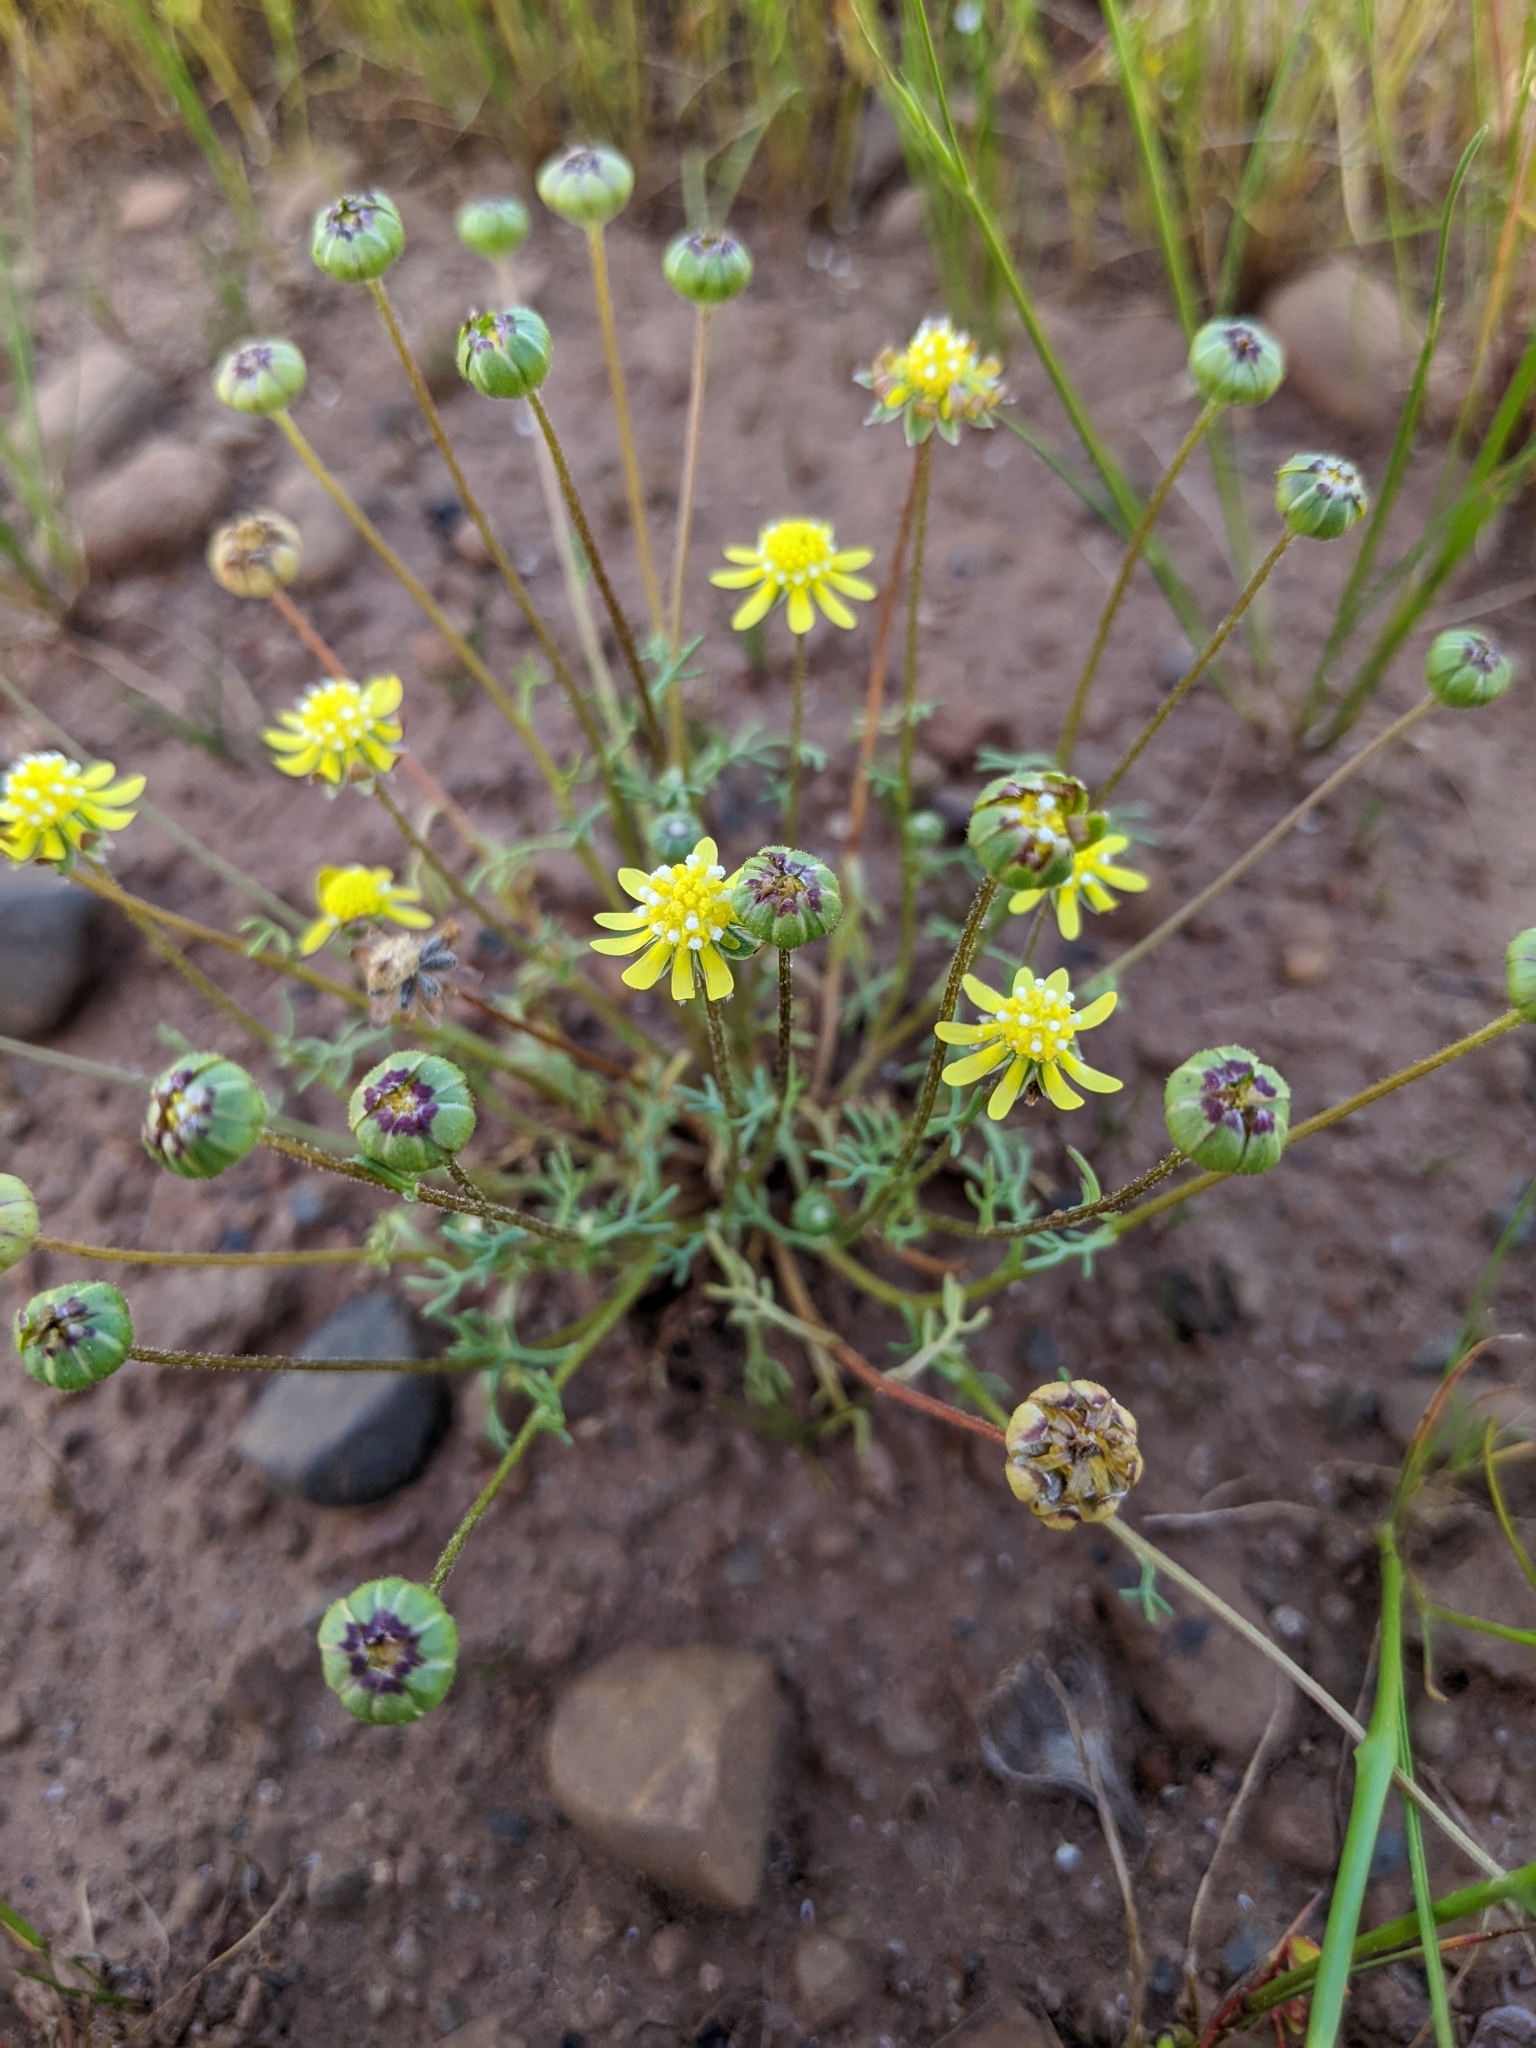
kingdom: Plantae
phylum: Tracheophyta
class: Magnoliopsida
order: Asterales
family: Asteraceae
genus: Blennosperma
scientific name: Blennosperma nanum
